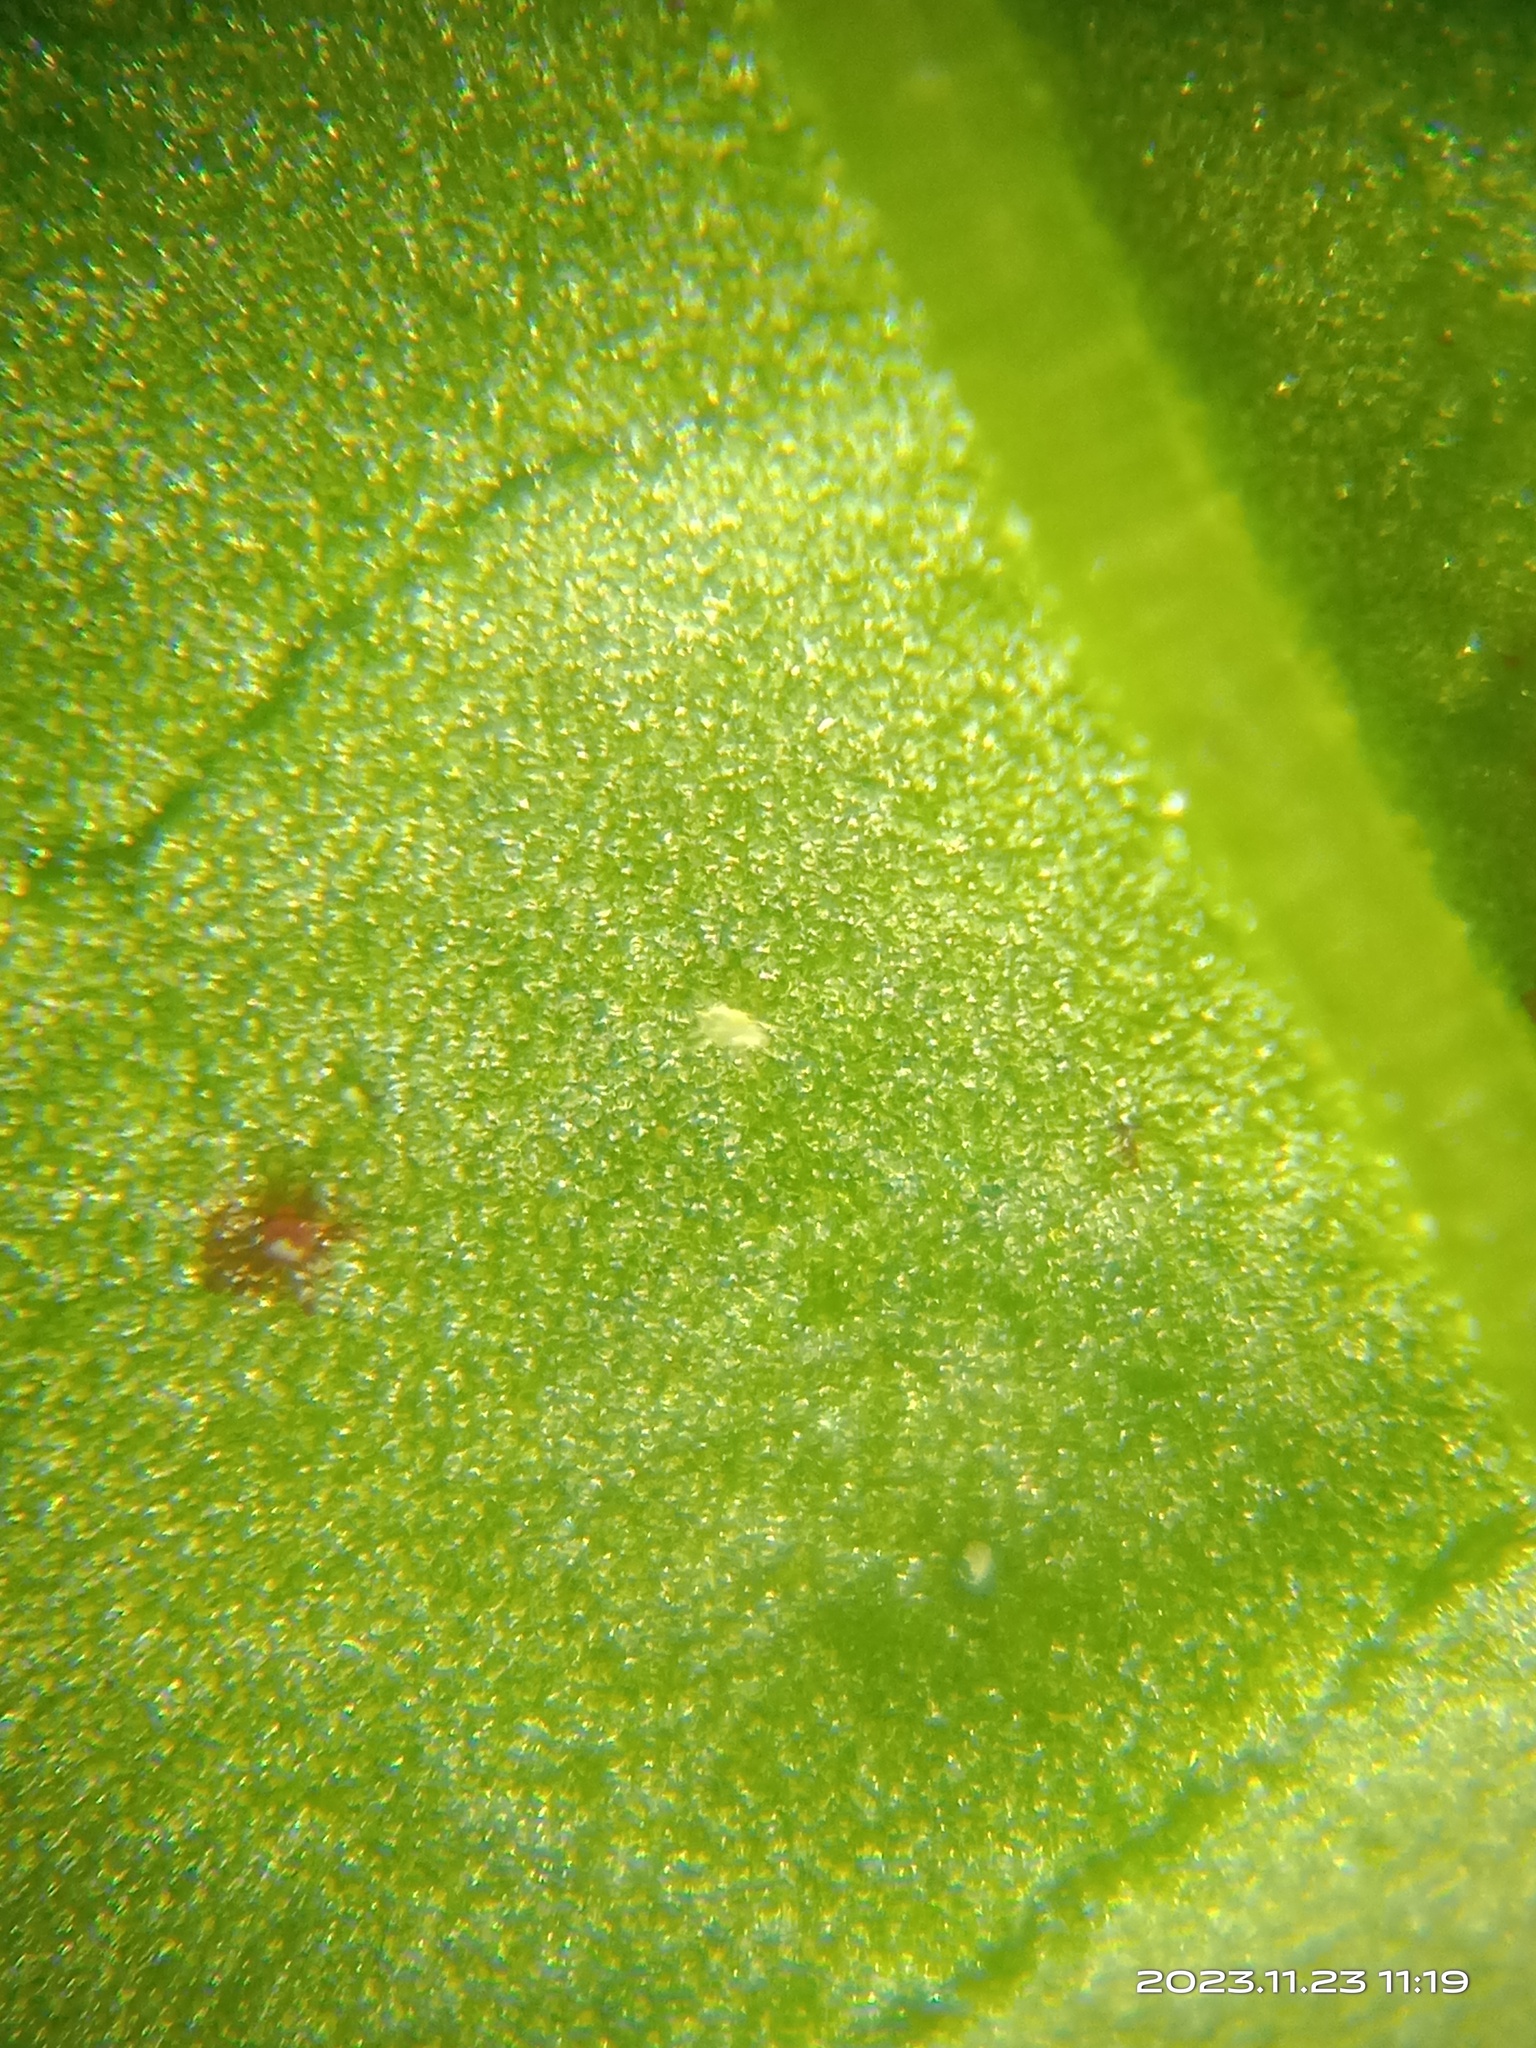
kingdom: Animalia
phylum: Arthropoda
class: Arachnida
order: Trombidiformes
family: Tarsonemidae
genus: Polyphagotarsonemus
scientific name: Polyphagotarsonemus latus
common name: Mite
